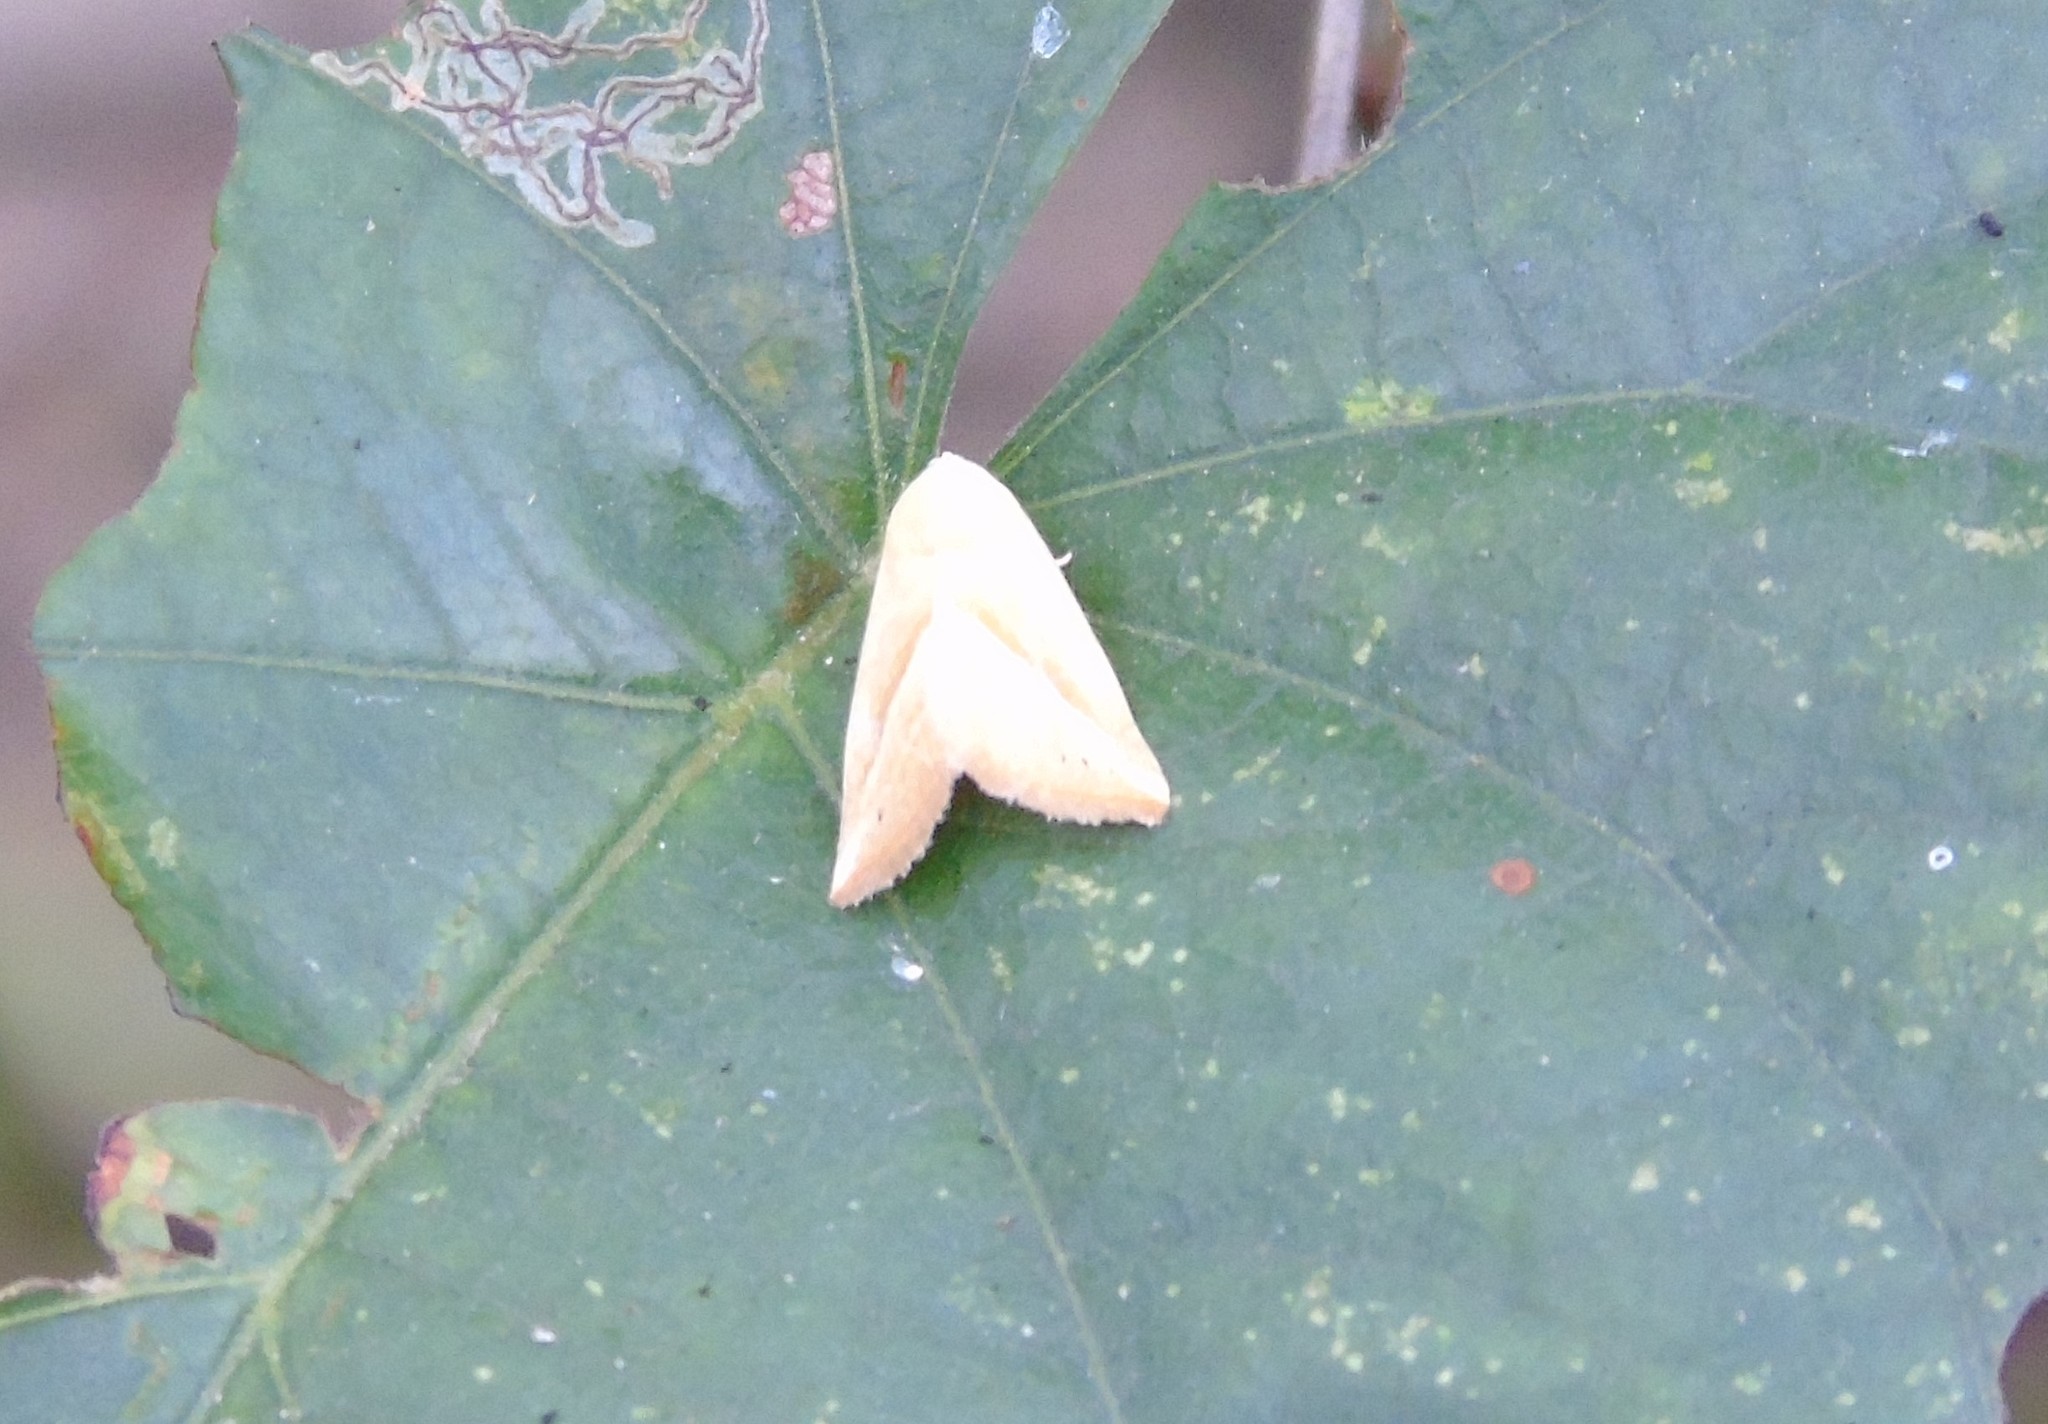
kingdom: Animalia
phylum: Arthropoda
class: Insecta
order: Lepidoptera
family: Noctuidae
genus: Eublemma
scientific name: Eublemma
